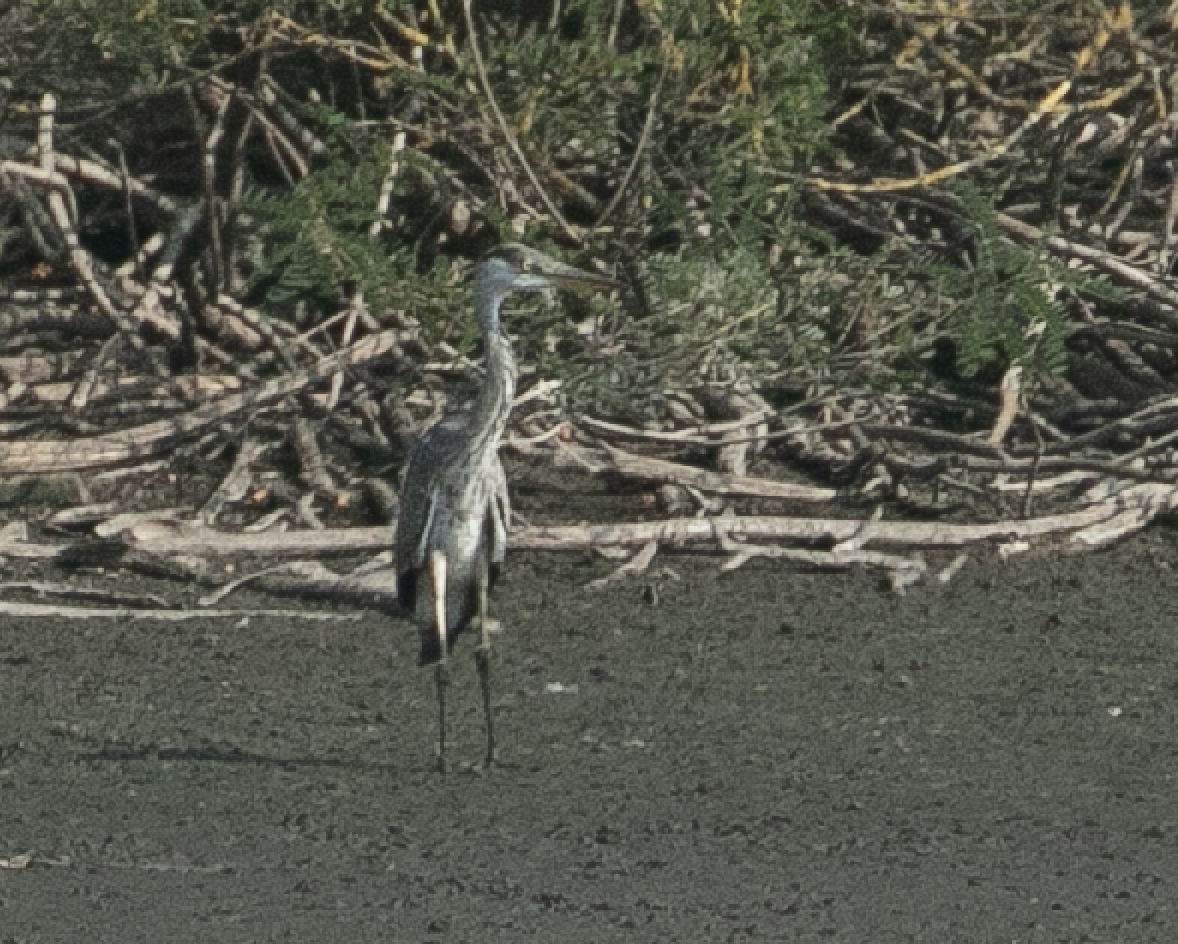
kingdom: Animalia
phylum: Chordata
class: Aves
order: Pelecaniformes
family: Ardeidae
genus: Ardea
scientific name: Ardea cinerea
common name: Grey heron
